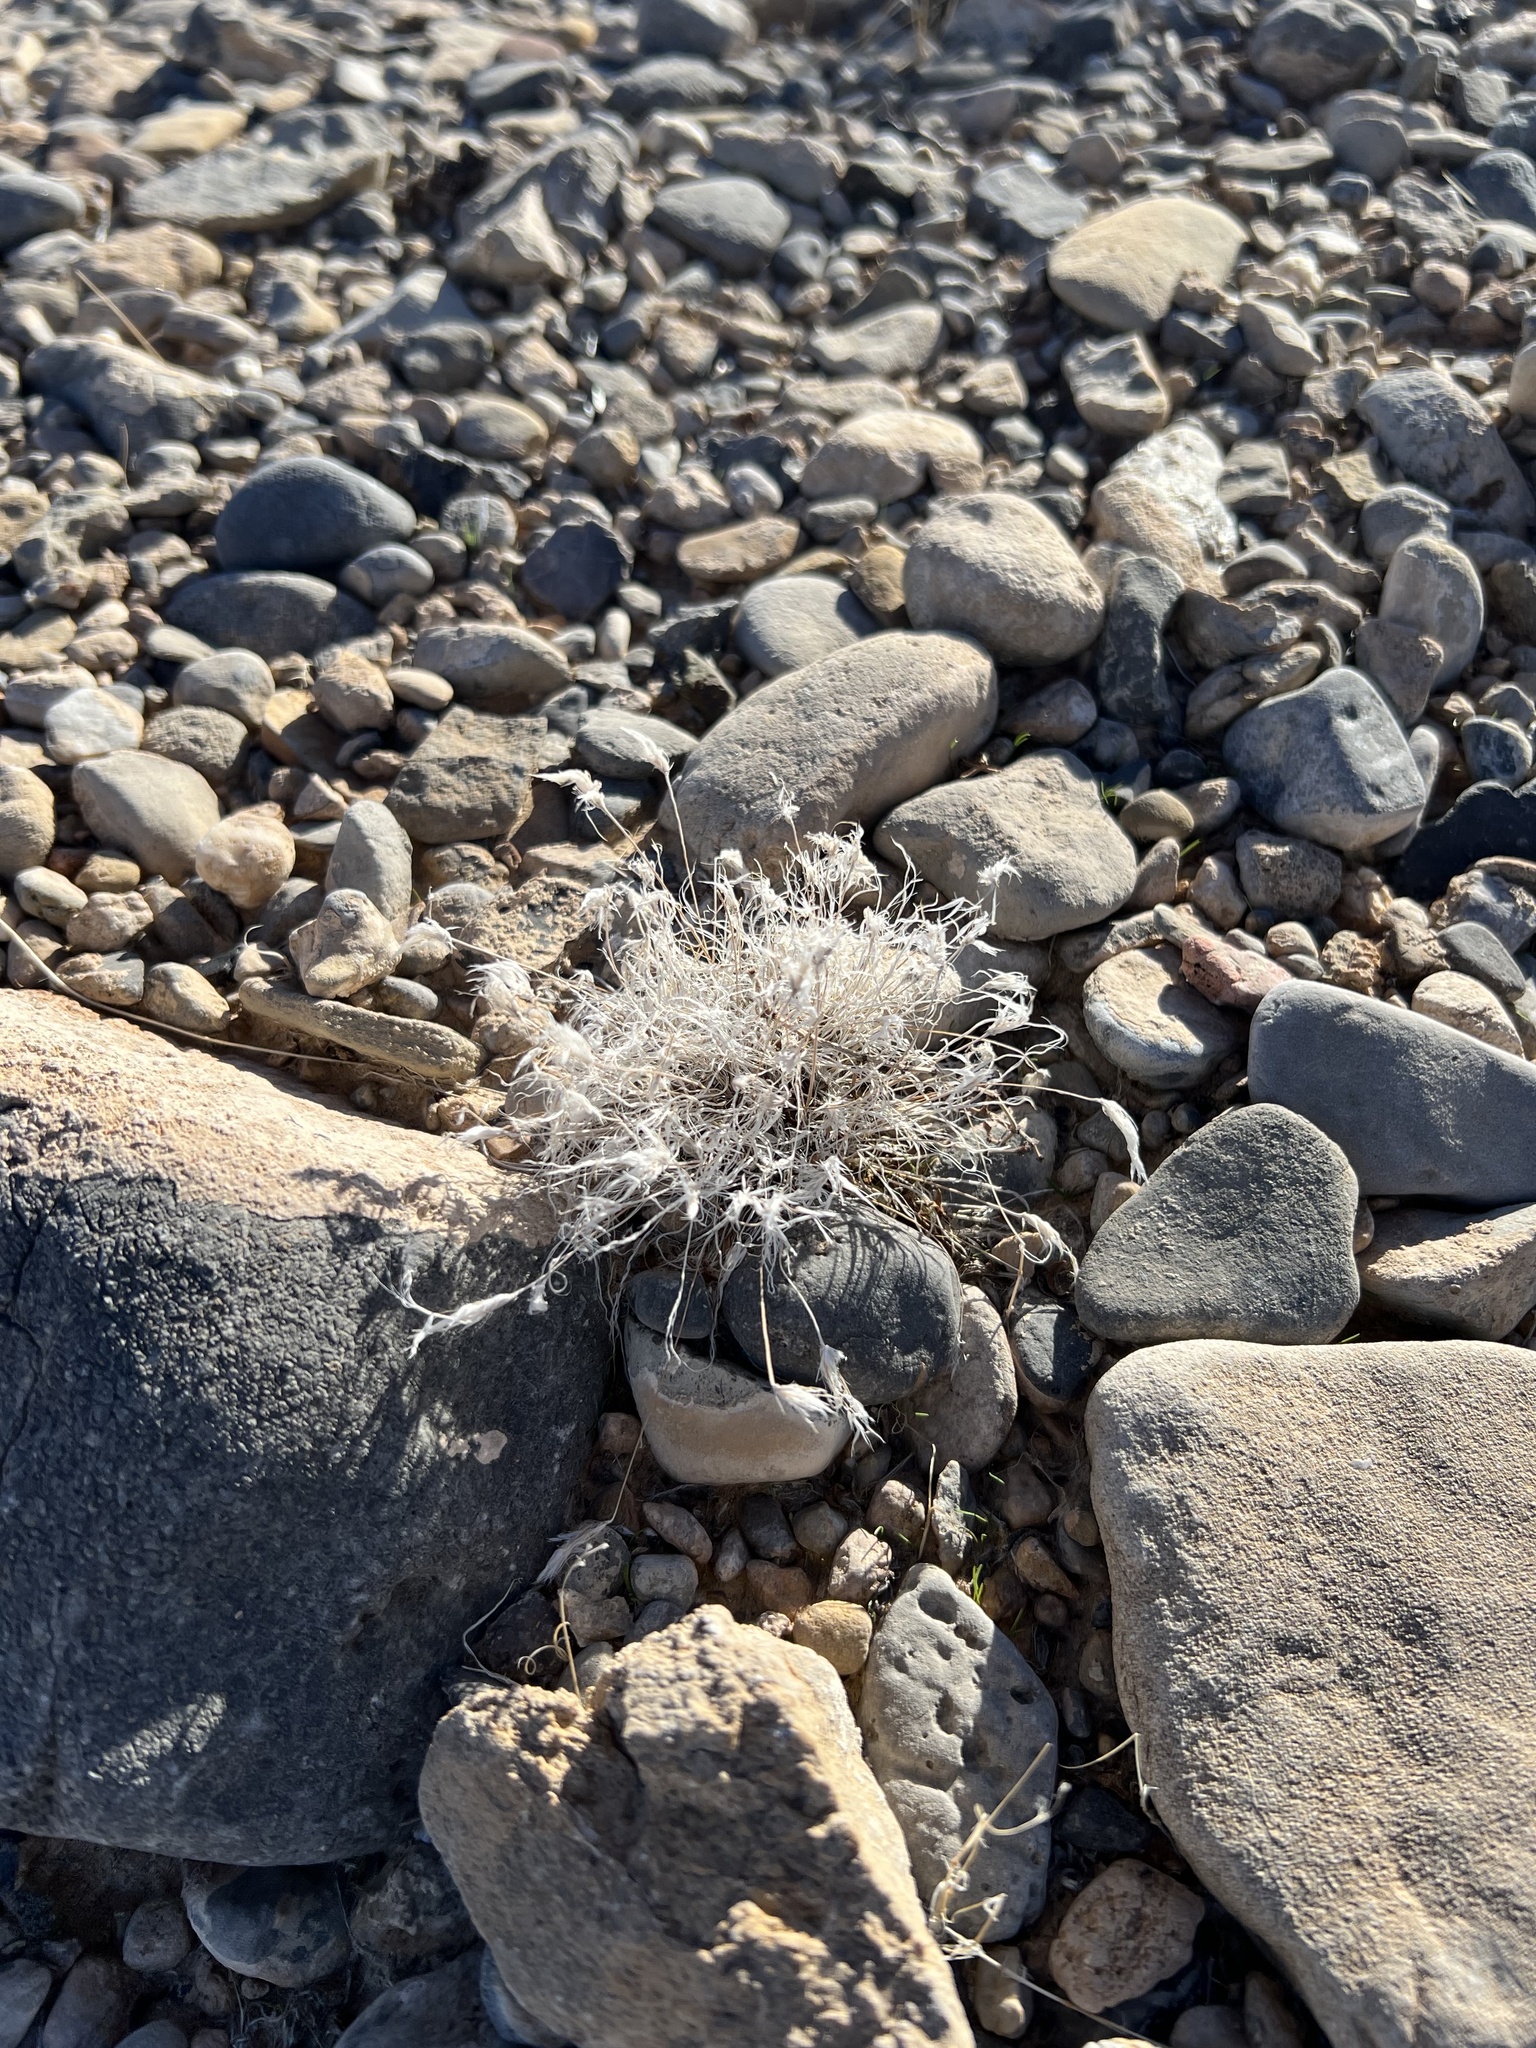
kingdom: Plantae
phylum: Tracheophyta
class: Liliopsida
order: Poales
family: Poaceae
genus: Dasyochloa
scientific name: Dasyochloa pulchella
